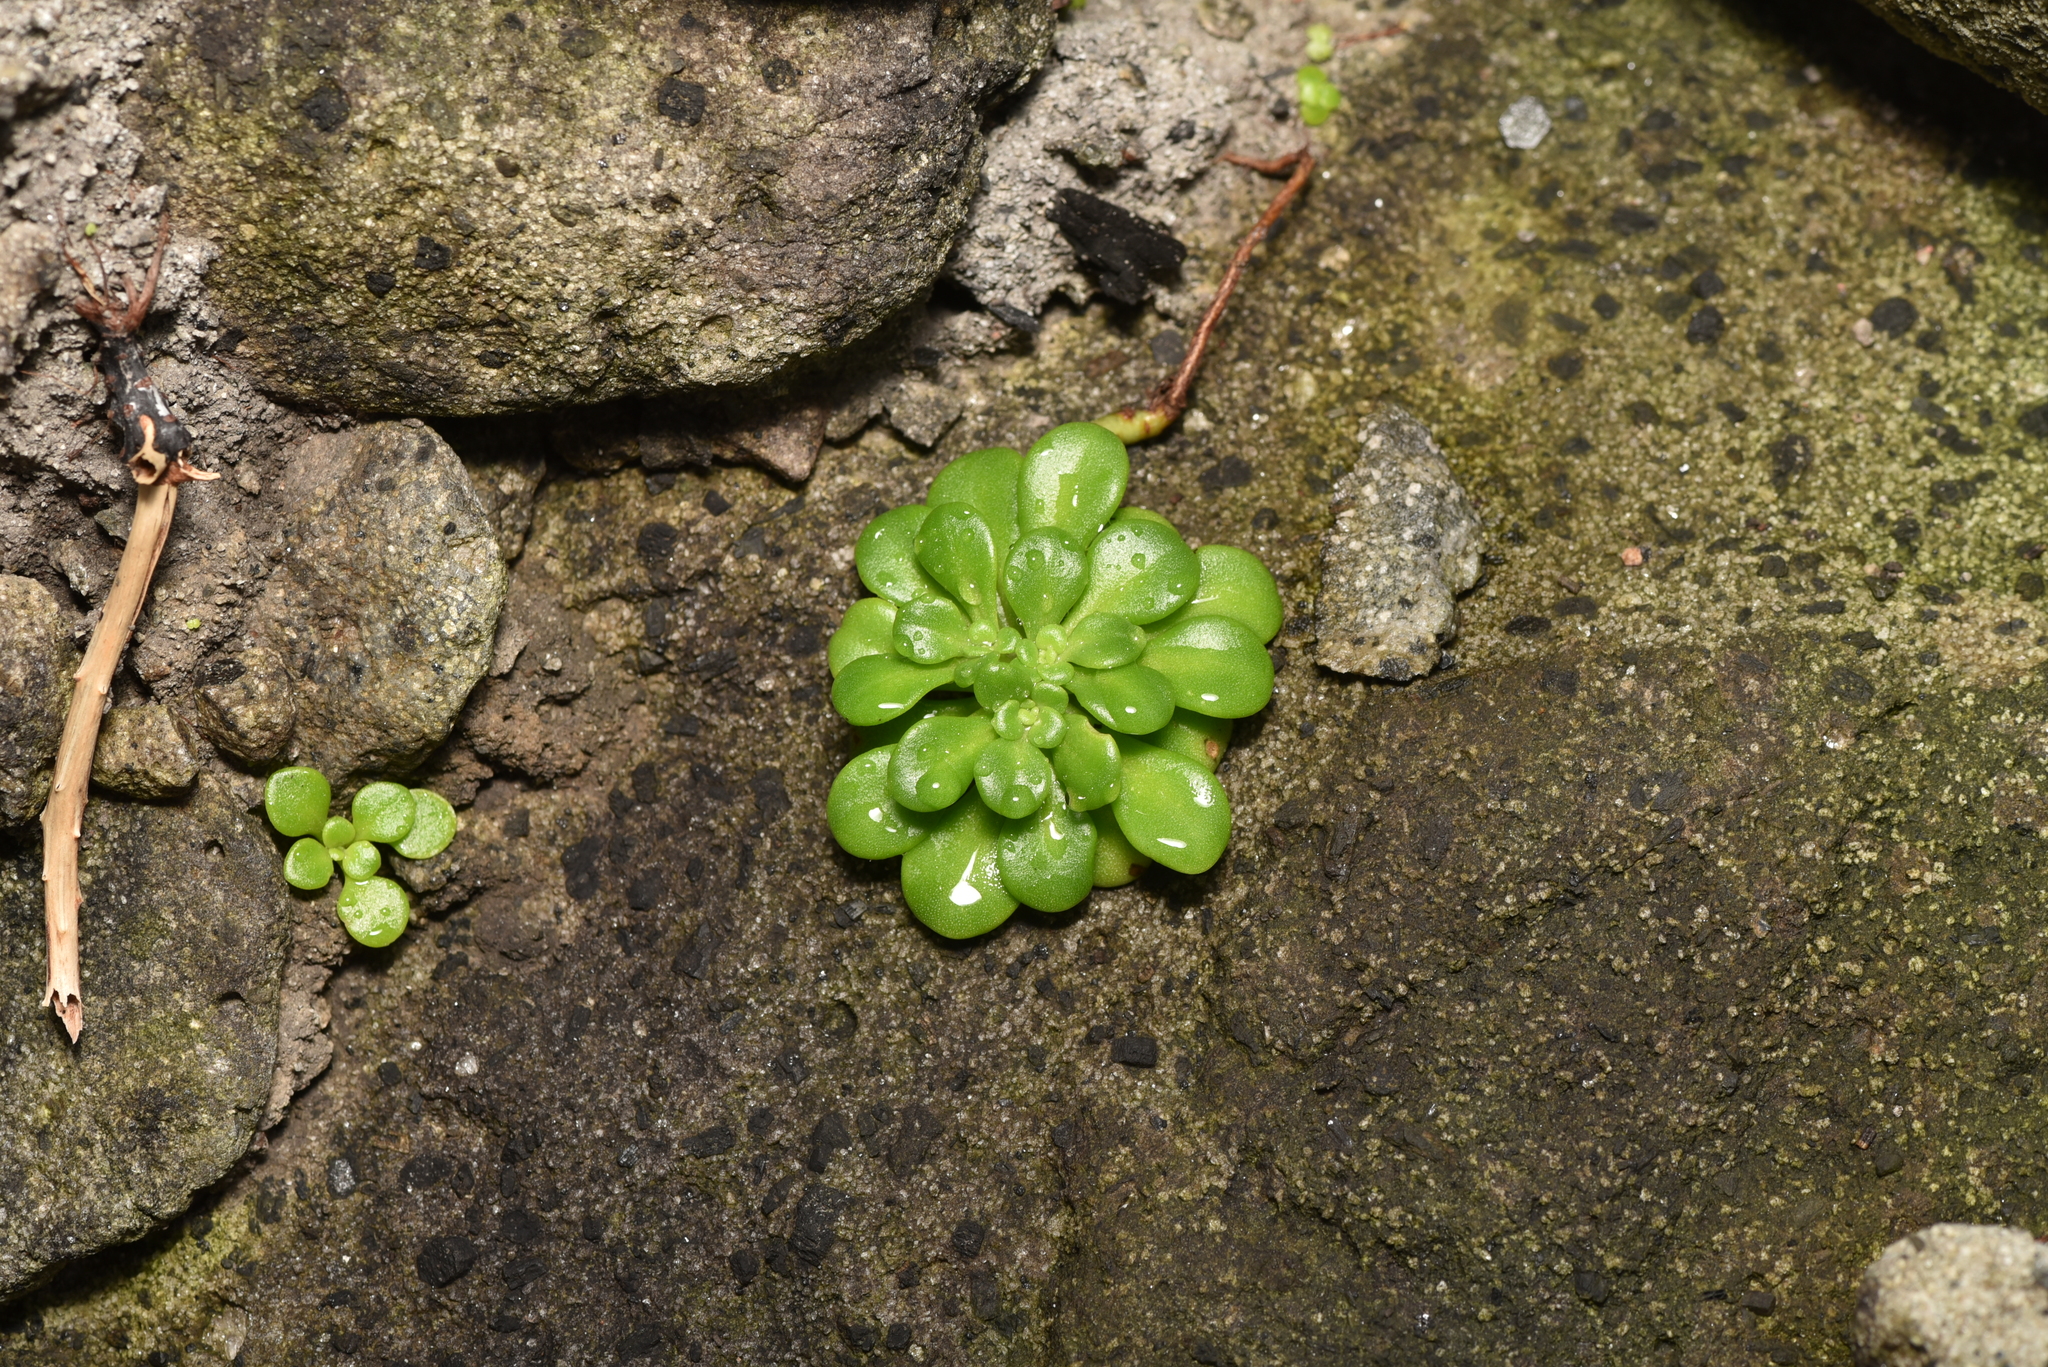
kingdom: Plantae
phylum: Tracheophyta
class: Magnoliopsida
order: Saxifragales
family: Crassulaceae
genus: Sedum
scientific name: Sedum formosanum
